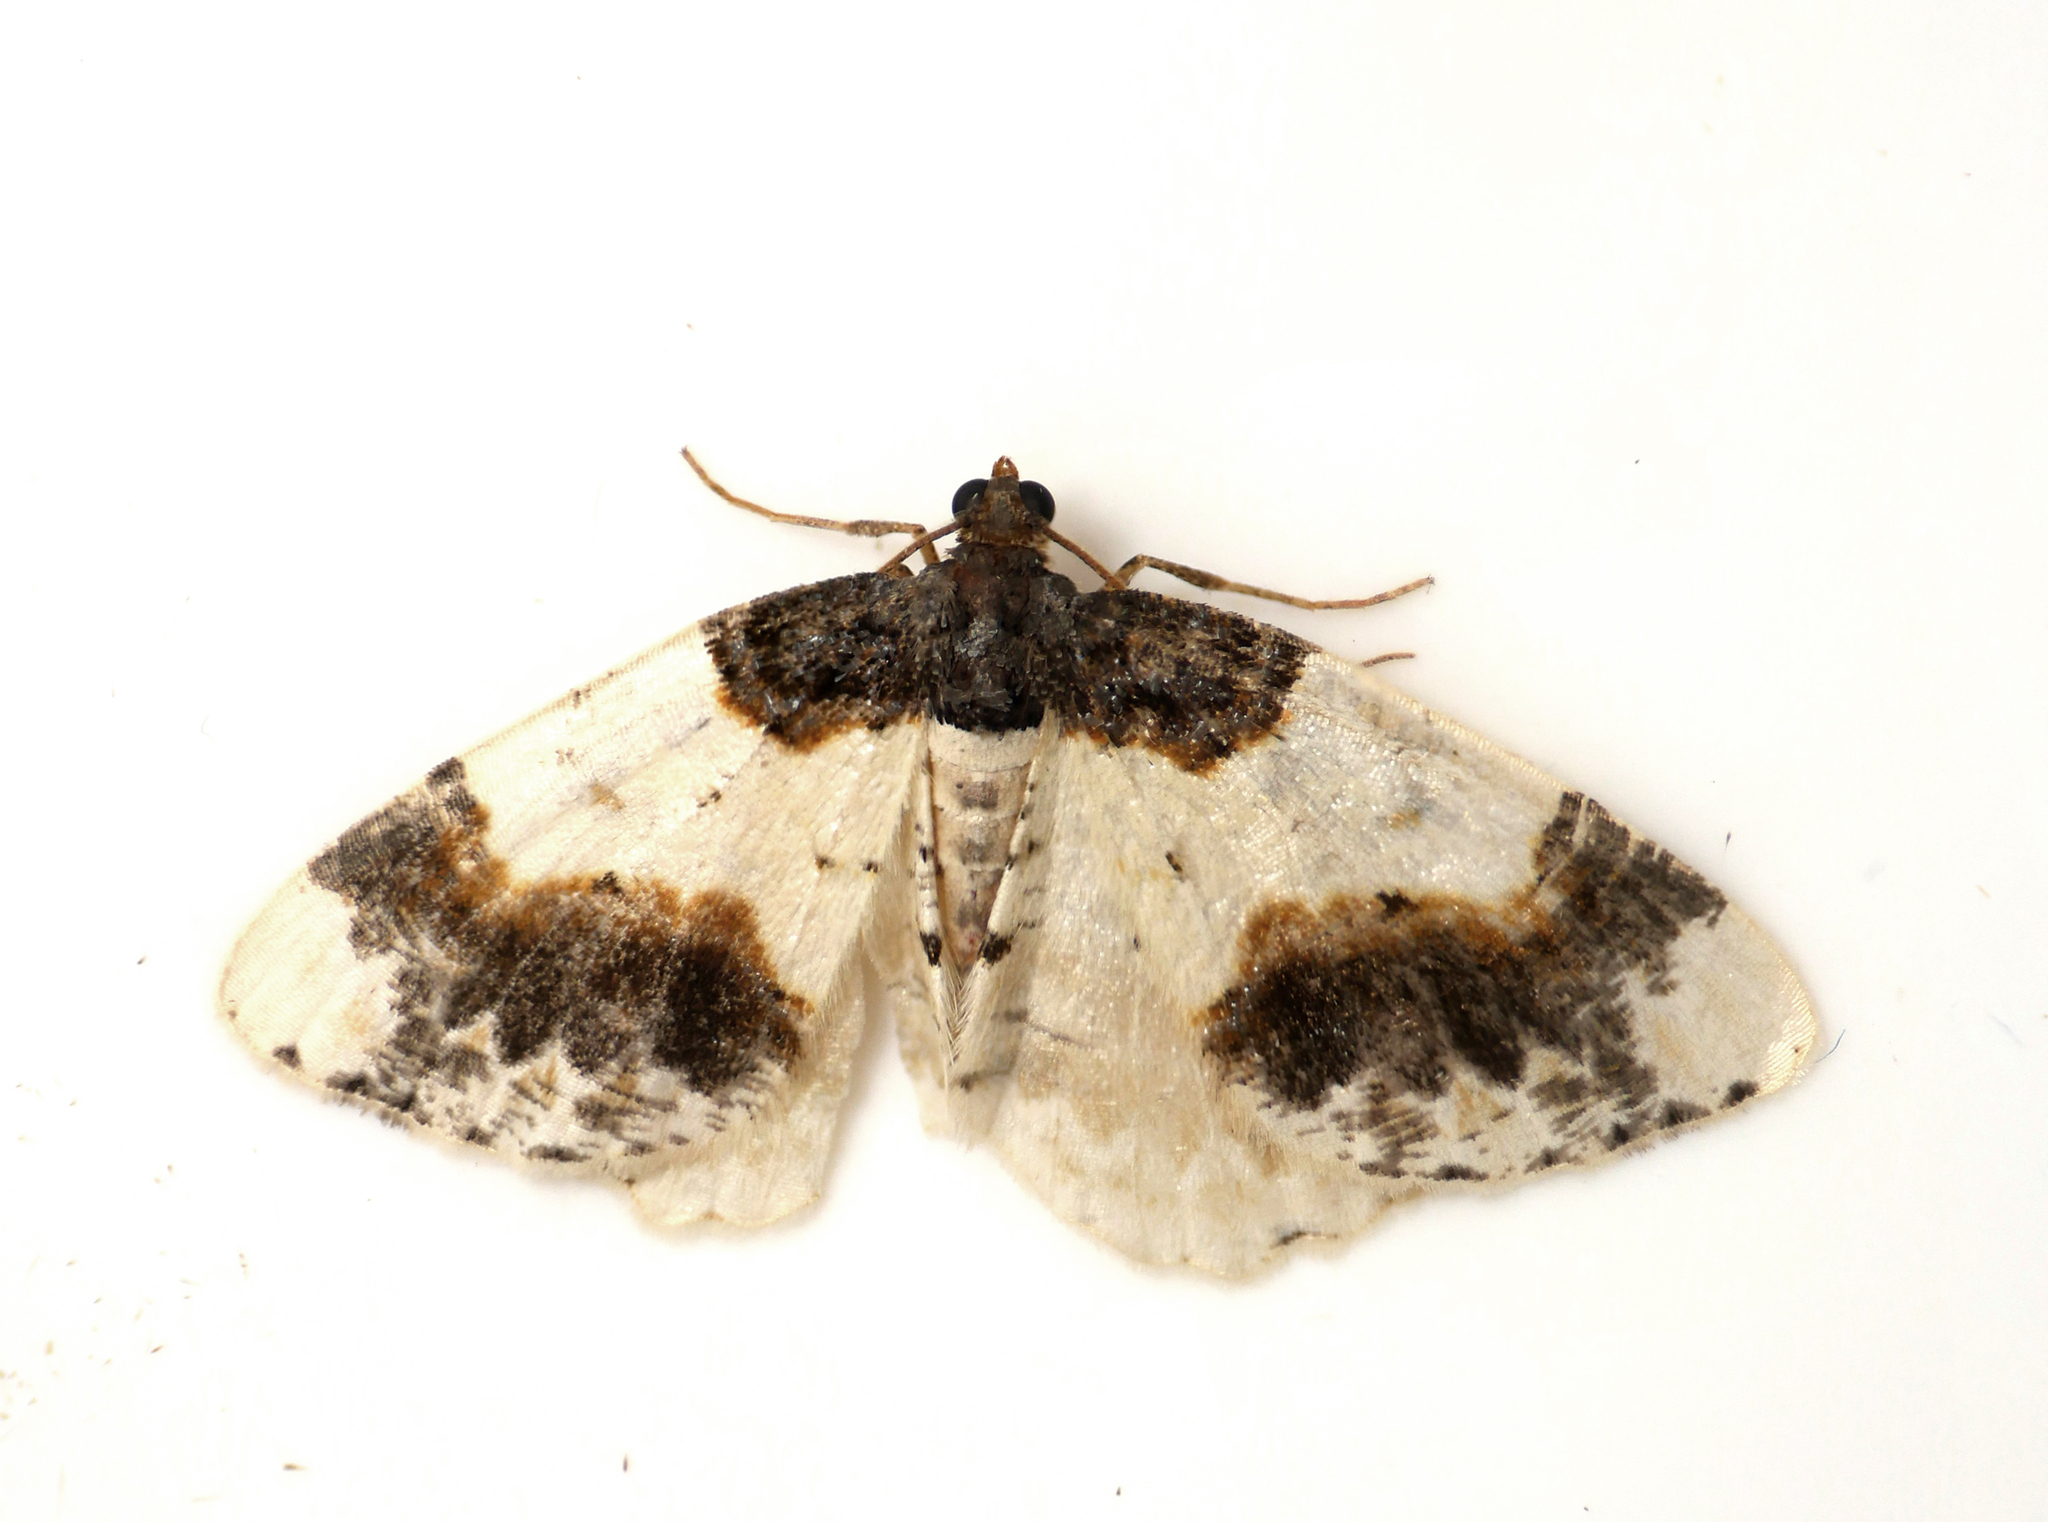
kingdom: Animalia
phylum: Arthropoda
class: Insecta
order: Lepidoptera
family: Geometridae
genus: Ligdia
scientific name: Ligdia adustata
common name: Scorched carpet
